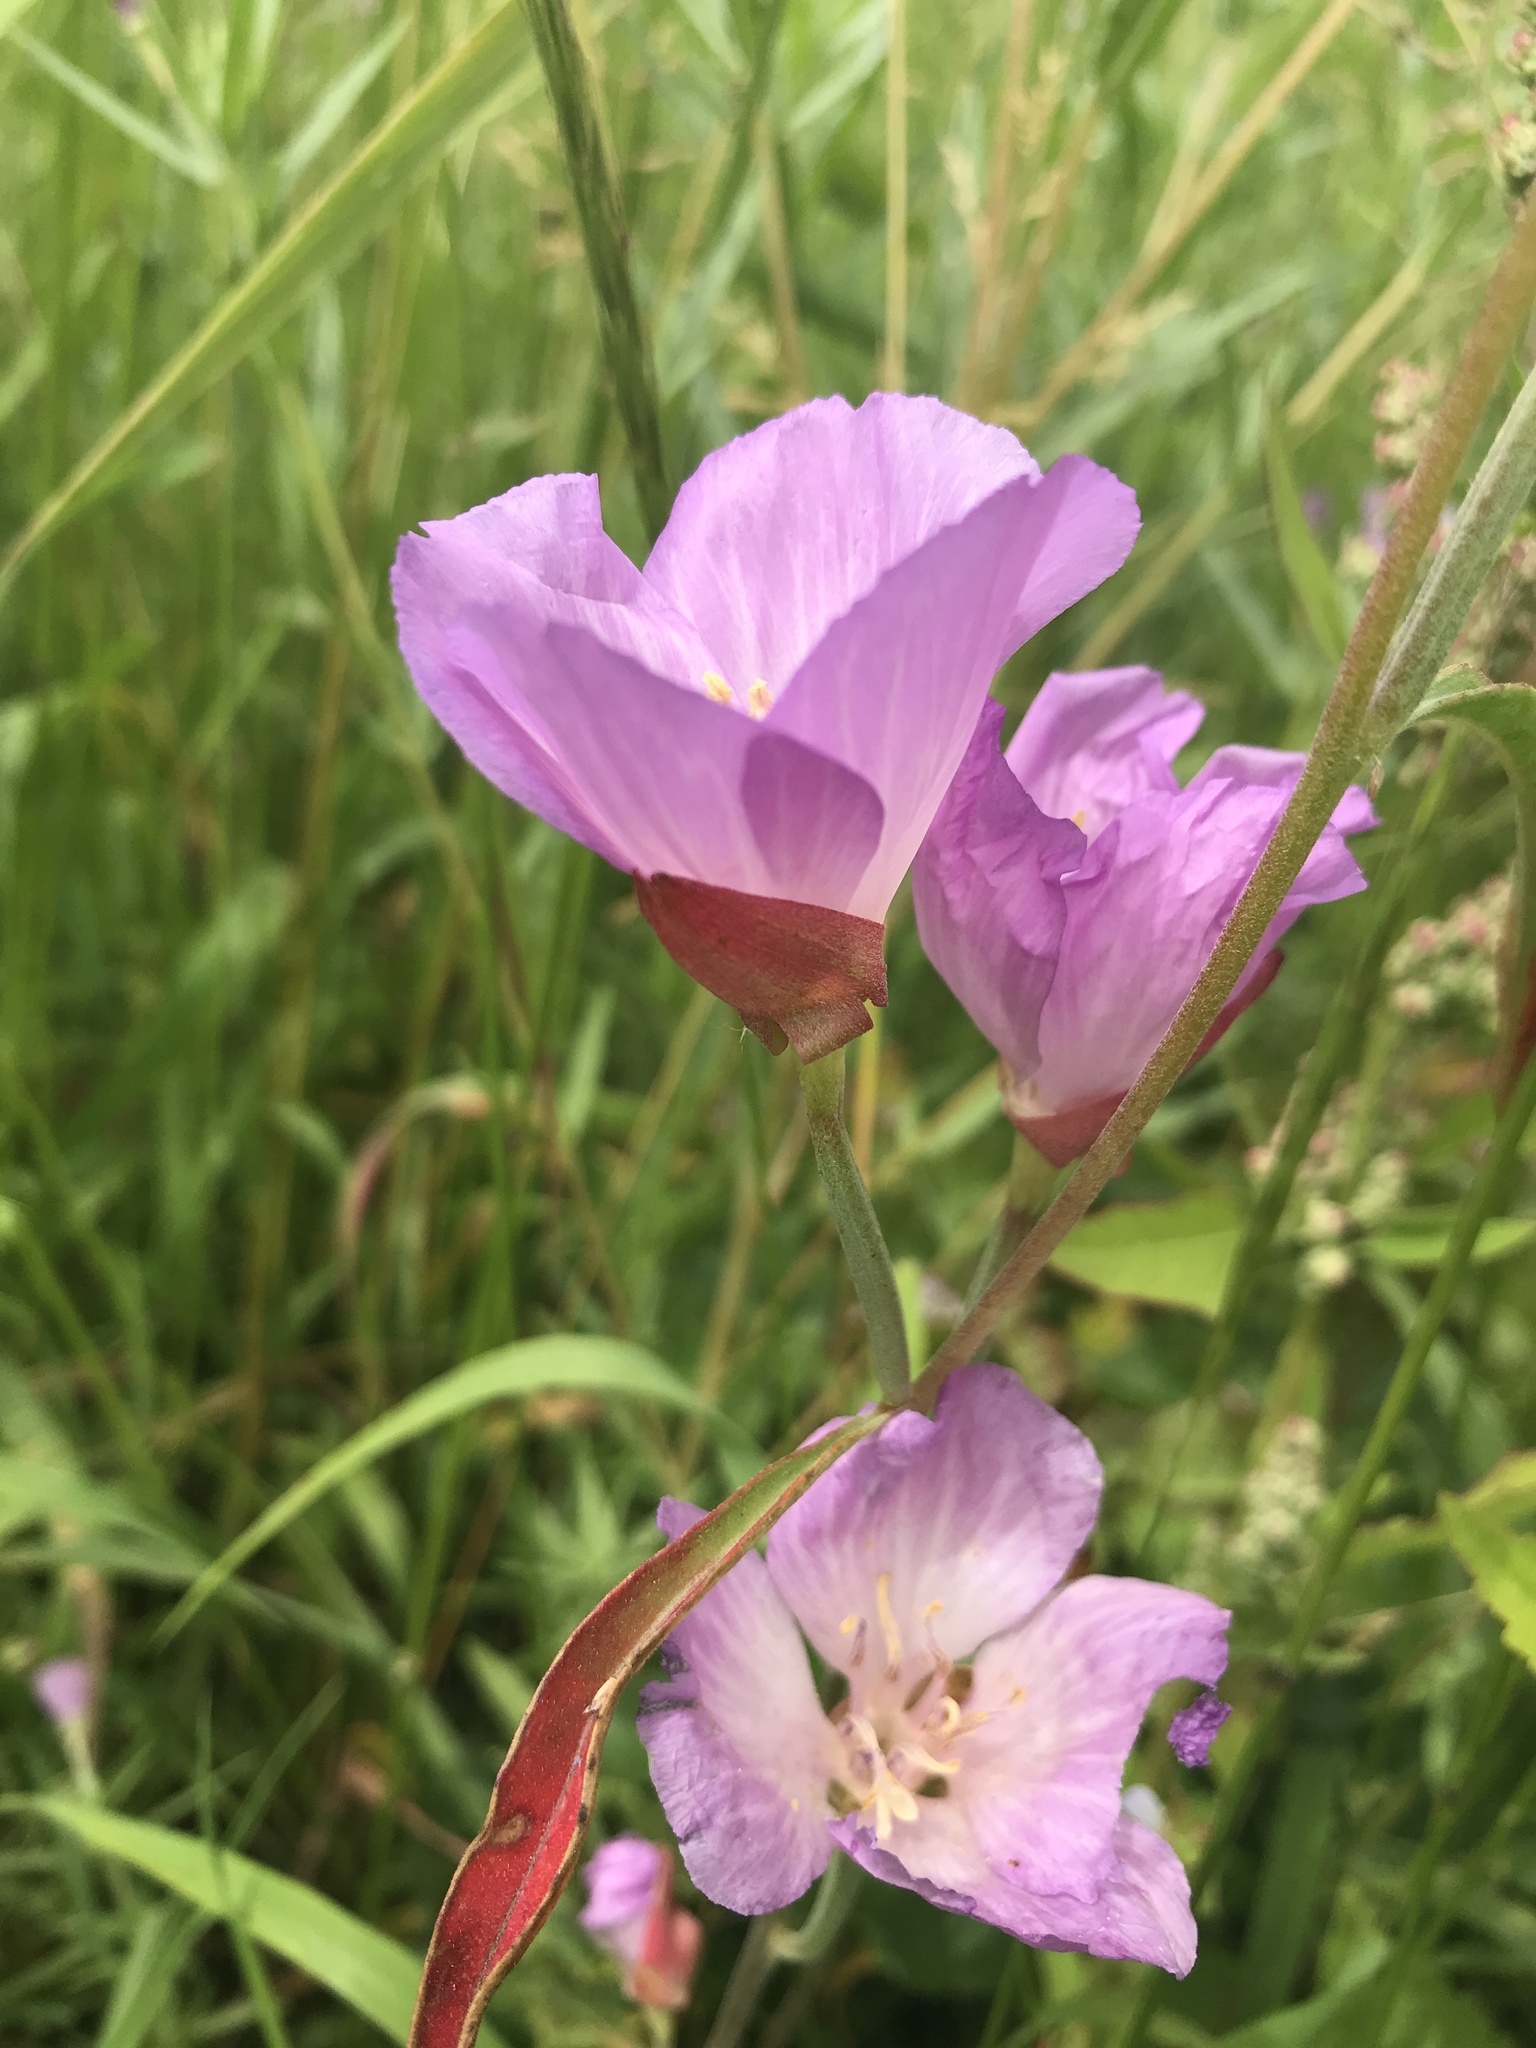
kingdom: Plantae
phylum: Tracheophyta
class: Magnoliopsida
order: Myrtales
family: Onagraceae
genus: Clarkia
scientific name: Clarkia amoena
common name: Godetia
